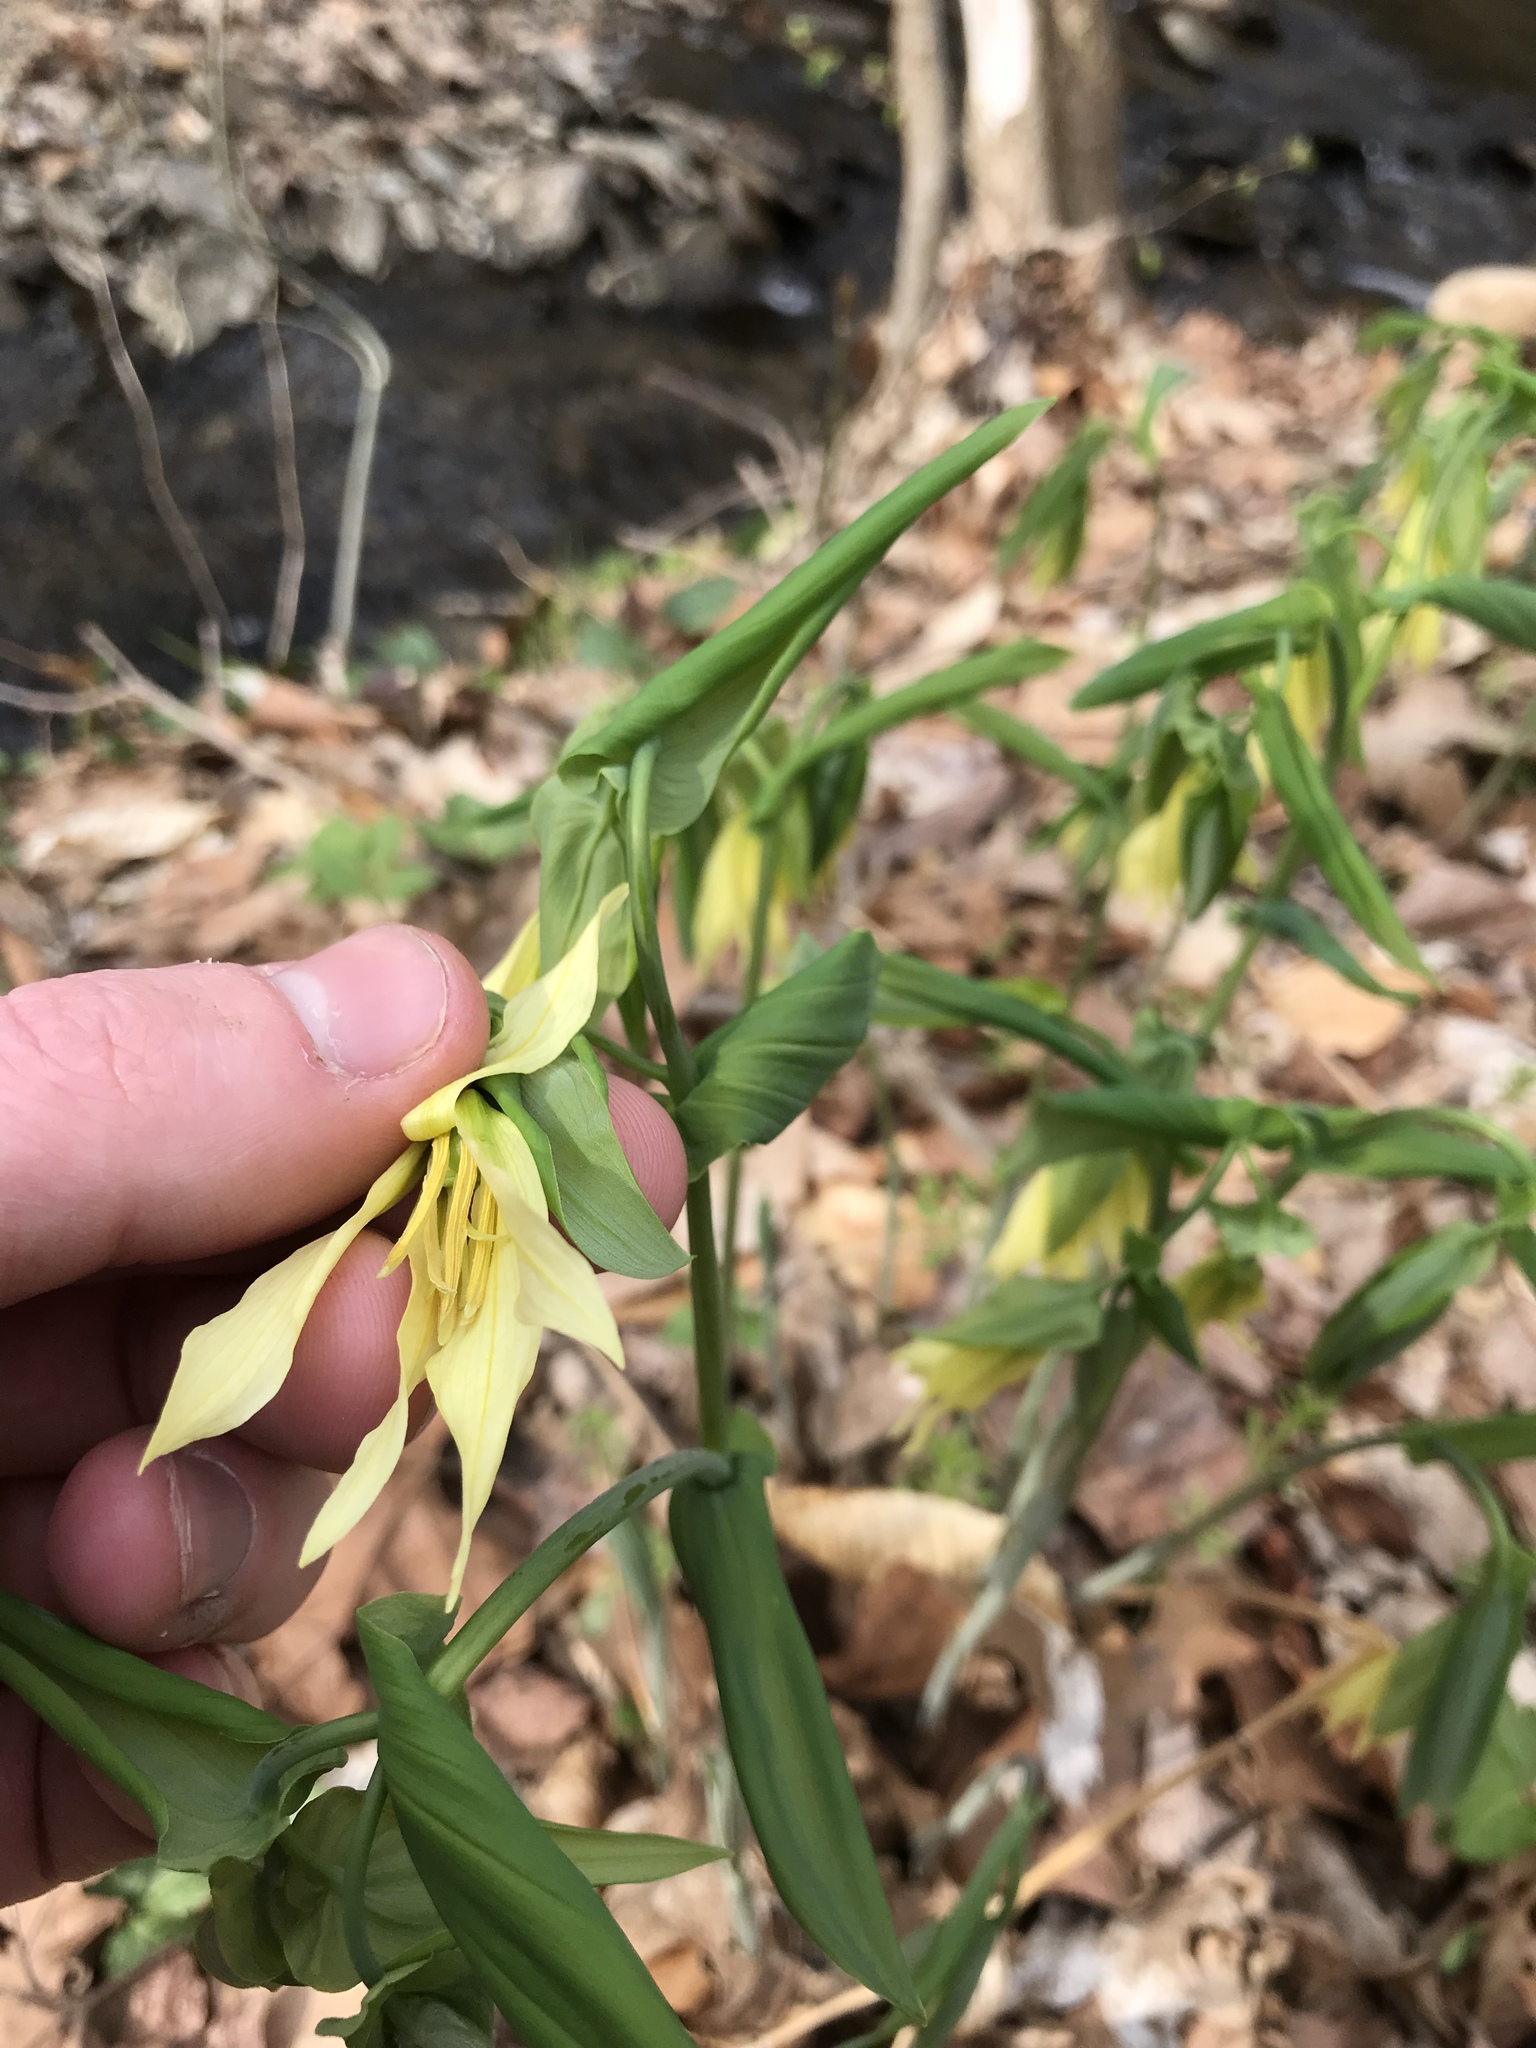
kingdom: Plantae
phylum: Tracheophyta
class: Liliopsida
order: Liliales
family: Colchicaceae
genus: Uvularia
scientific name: Uvularia grandiflora
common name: Bellwort
